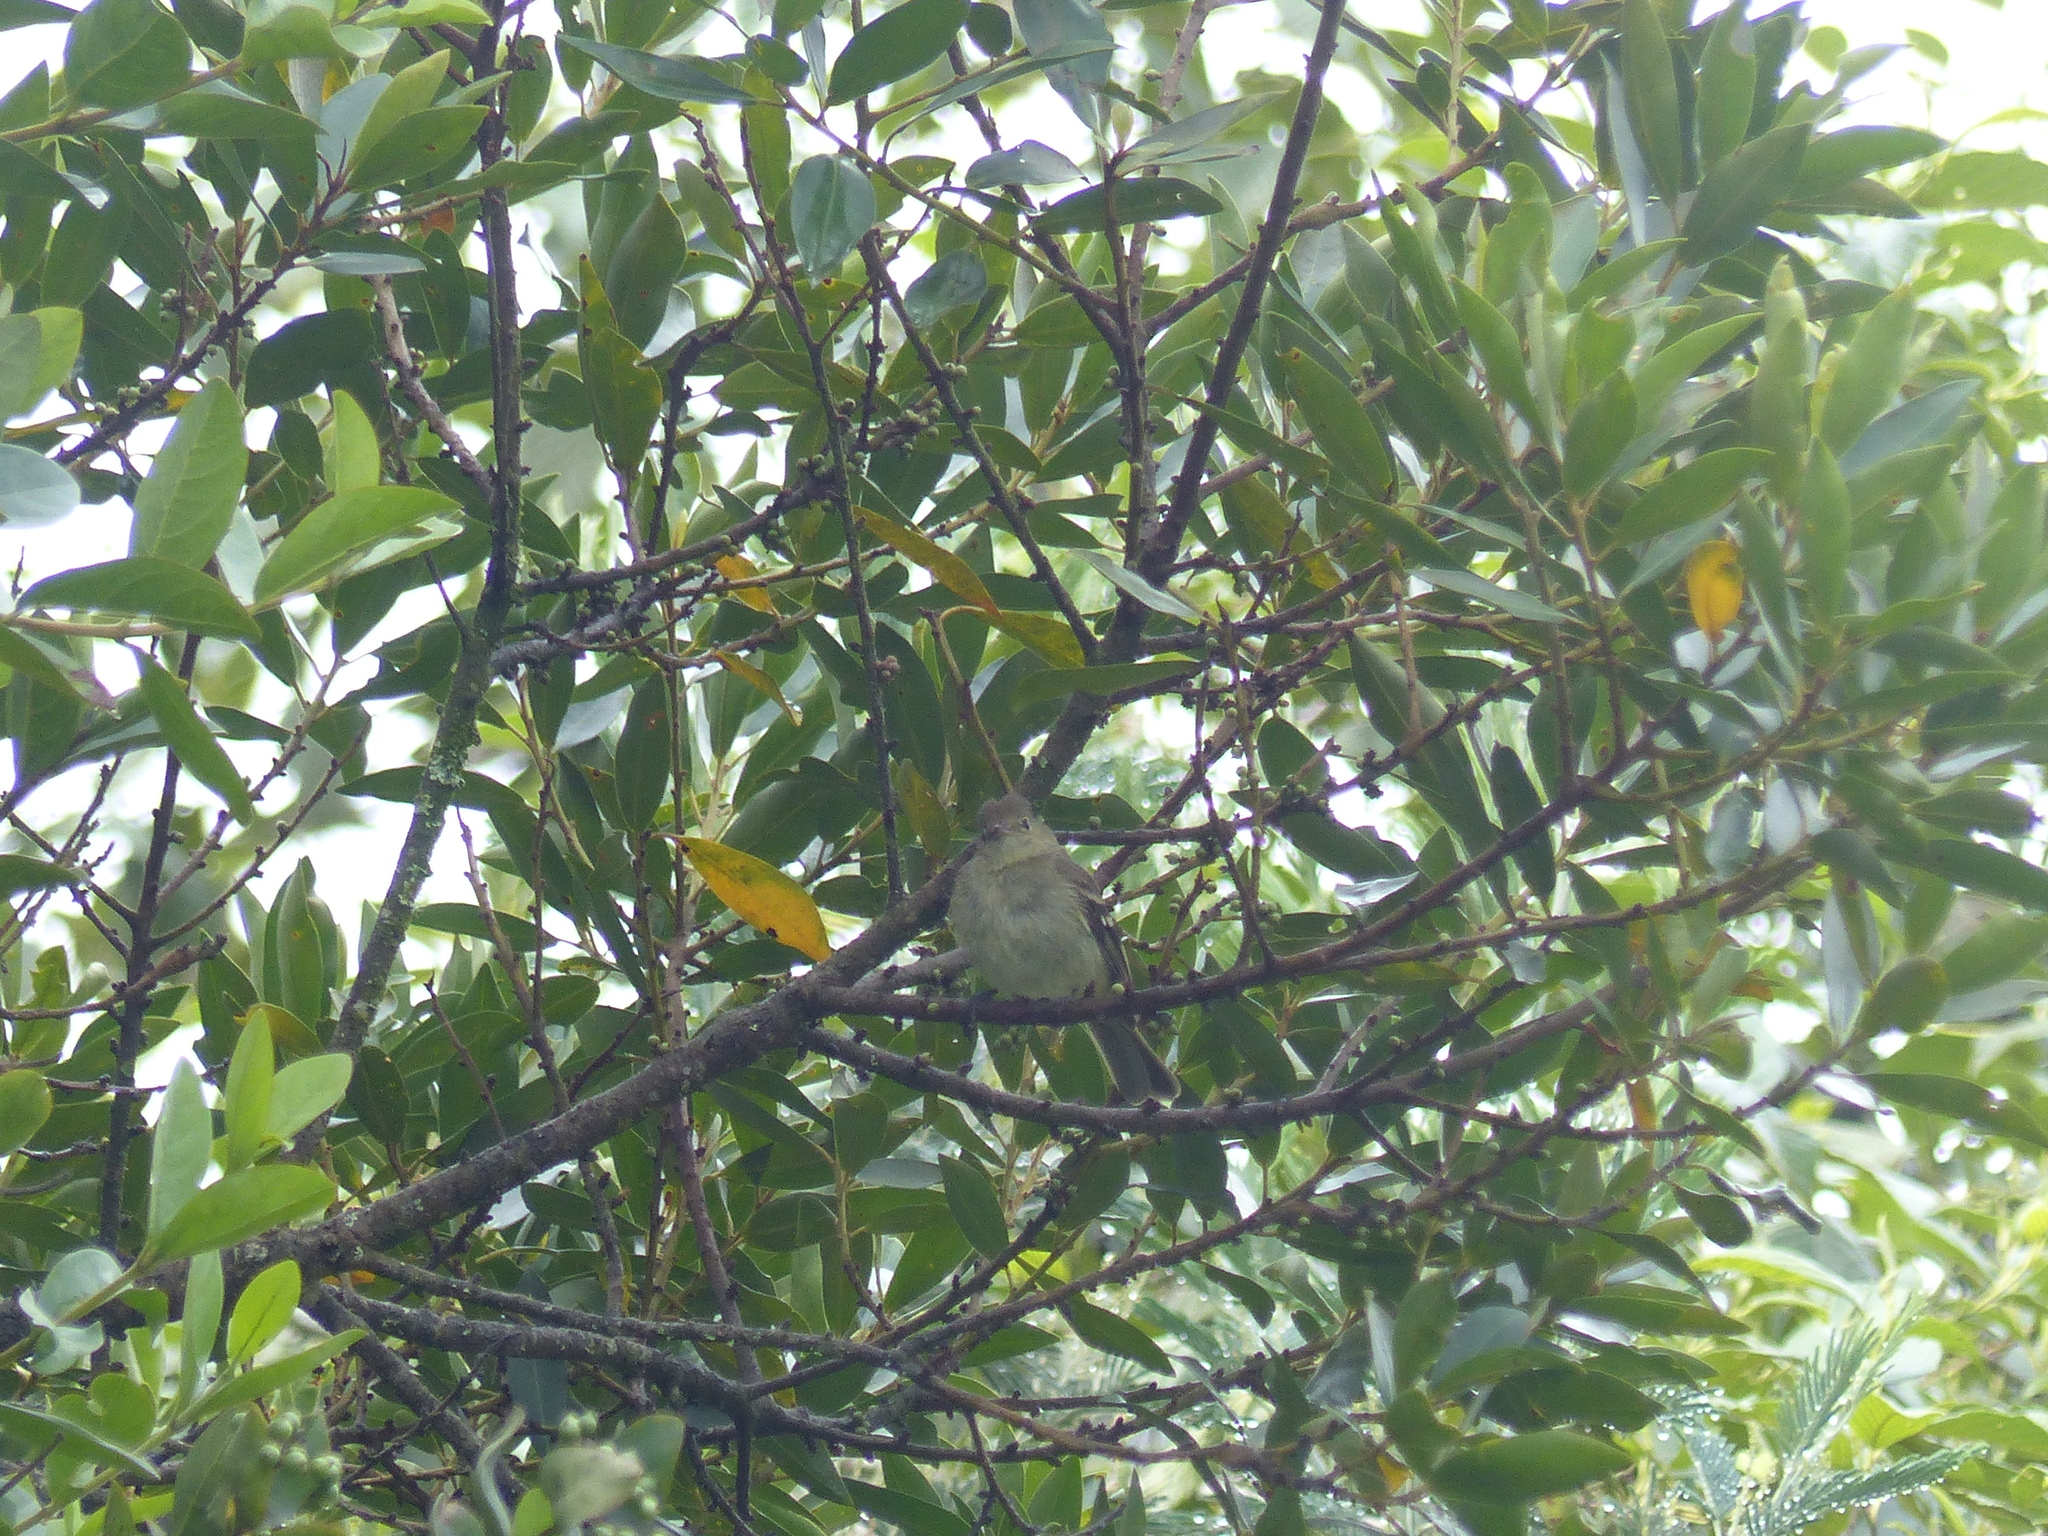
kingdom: Animalia
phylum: Chordata
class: Aves
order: Passeriformes
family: Tyrannidae
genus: Elaenia
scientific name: Elaenia frantzii
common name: Mountain elaenia
